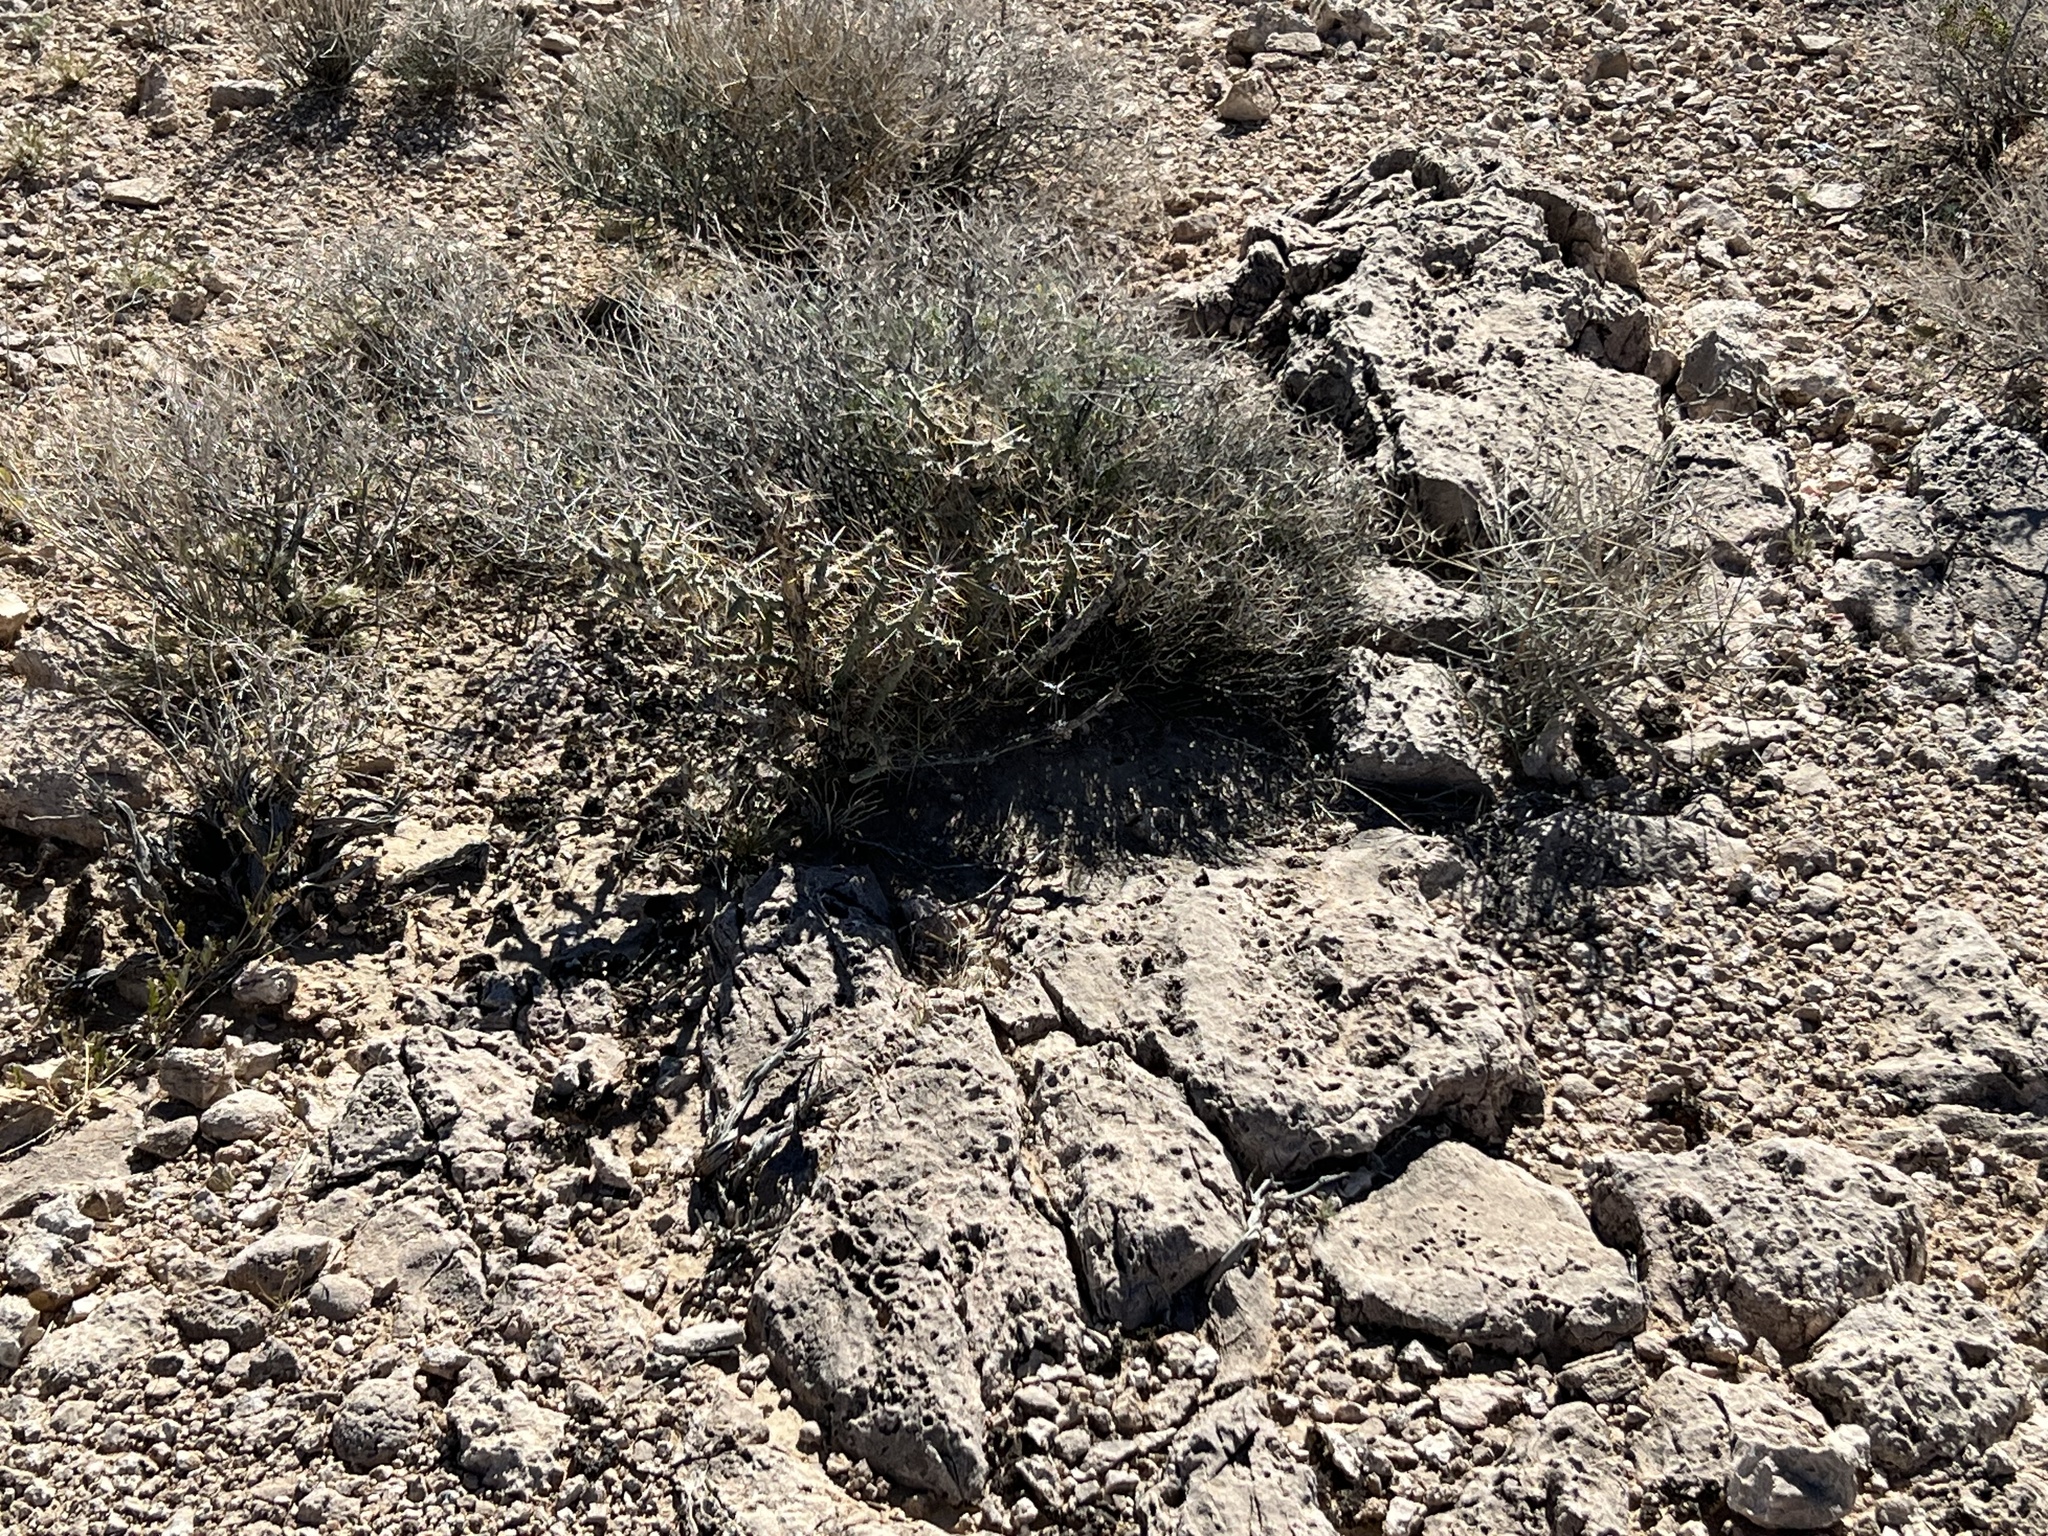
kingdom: Plantae
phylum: Tracheophyta
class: Magnoliopsida
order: Caryophyllales
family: Cactaceae
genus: Cylindropuntia
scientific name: Cylindropuntia ramosissima
